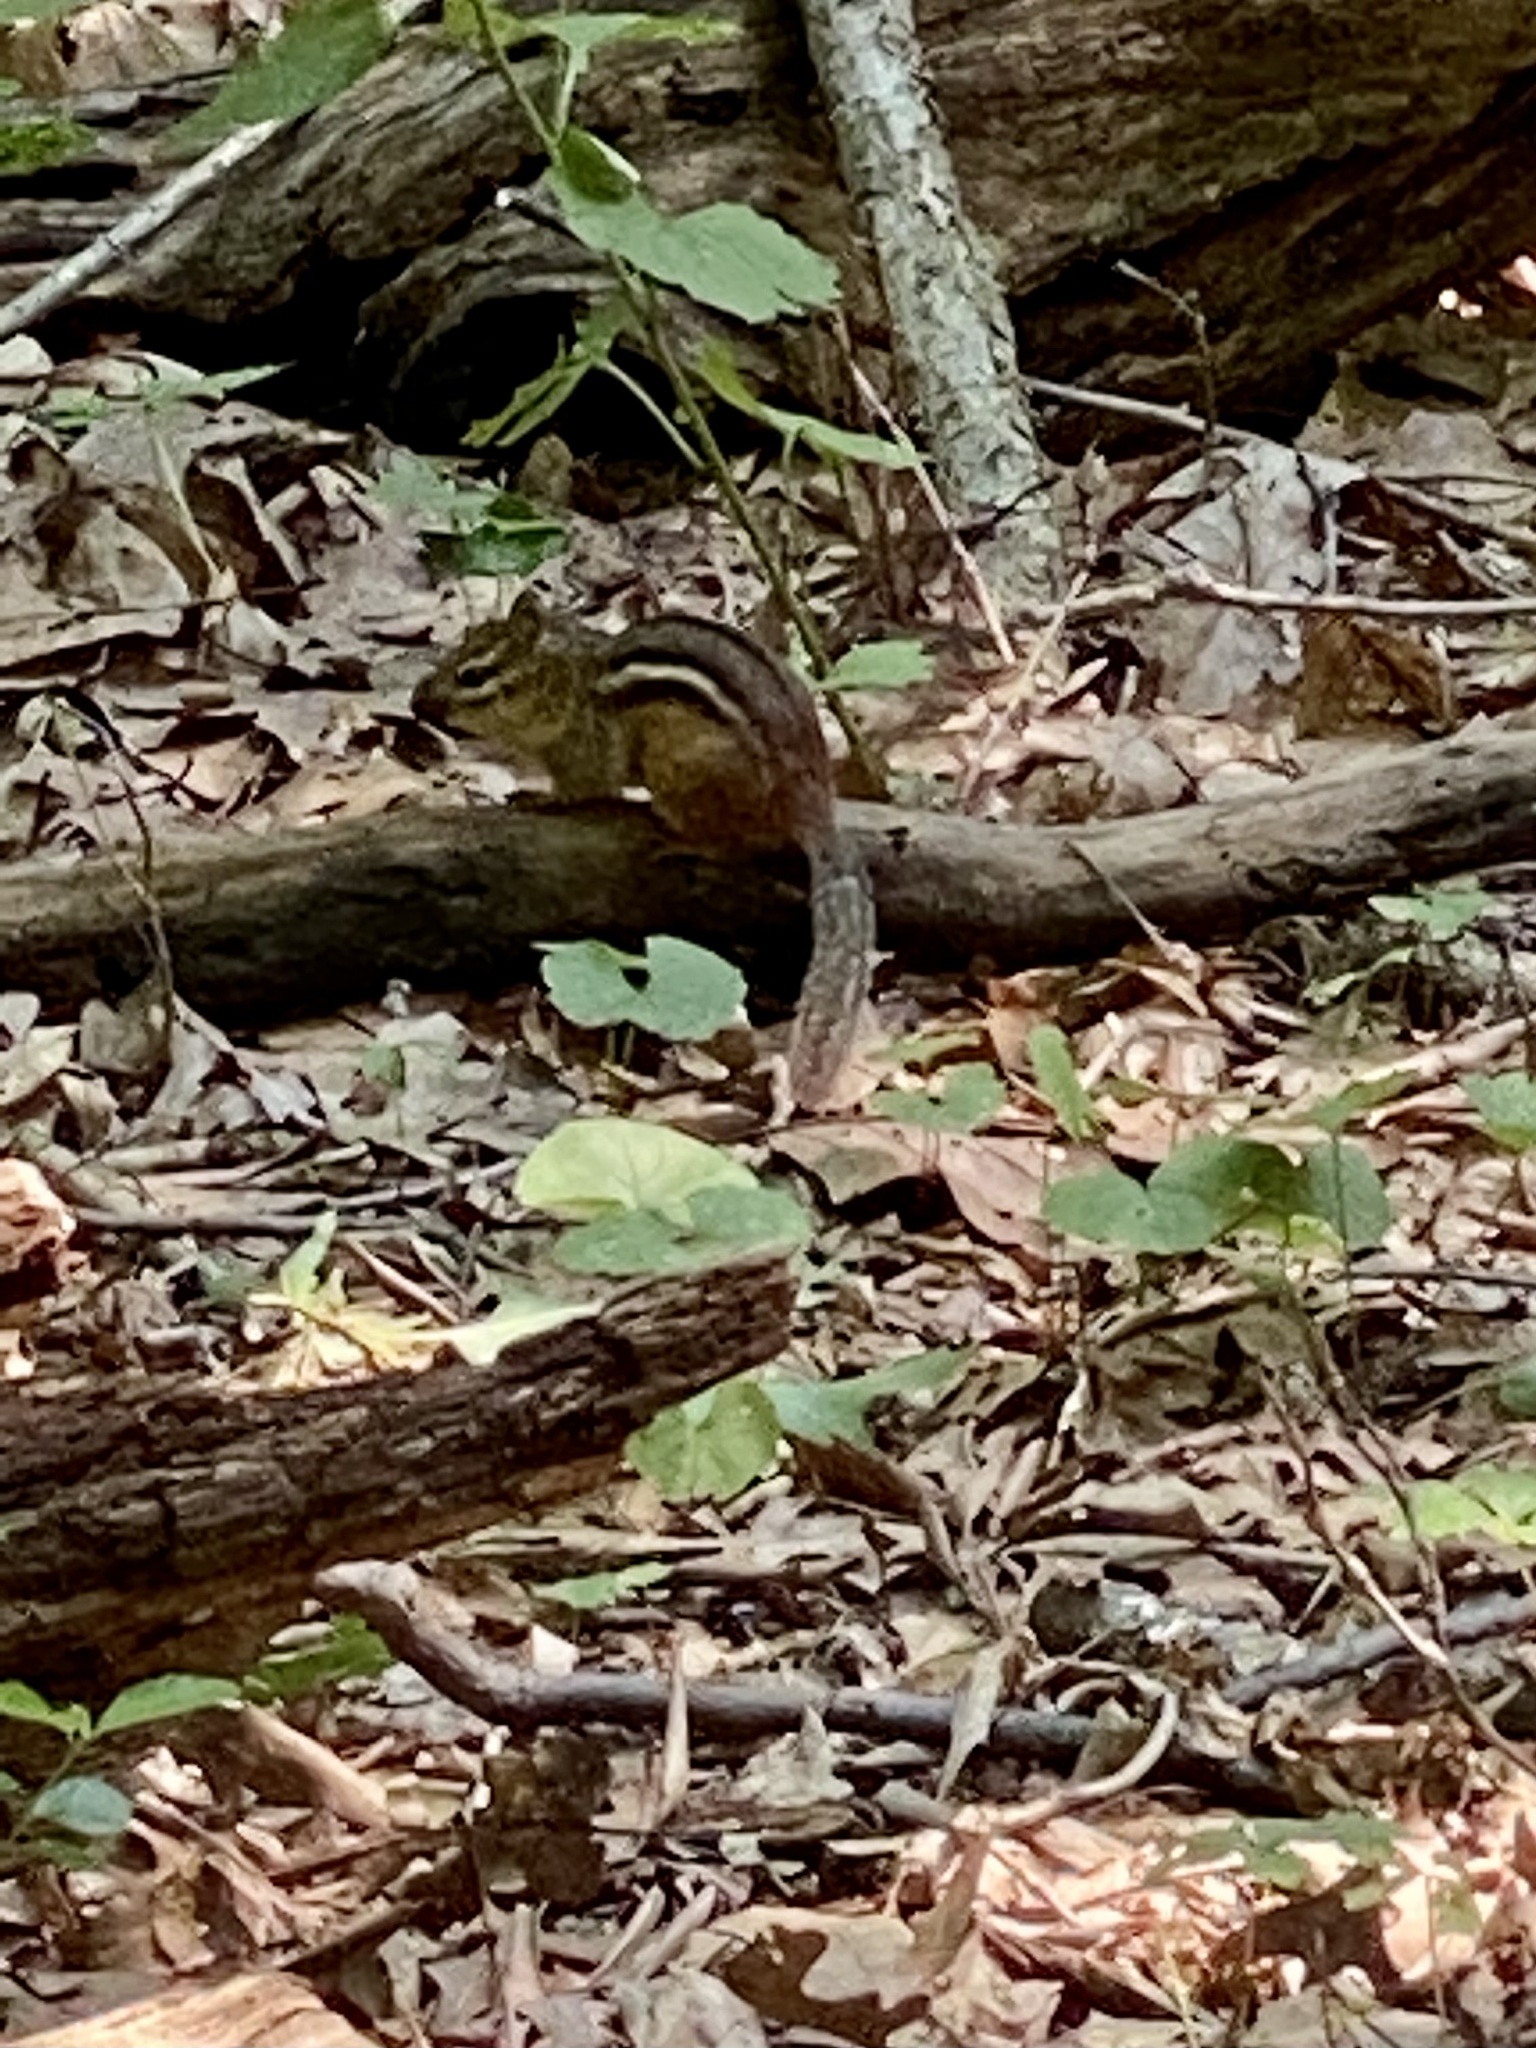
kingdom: Animalia
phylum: Chordata
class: Mammalia
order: Rodentia
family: Sciuridae
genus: Tamias
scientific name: Tamias striatus
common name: Eastern chipmunk
